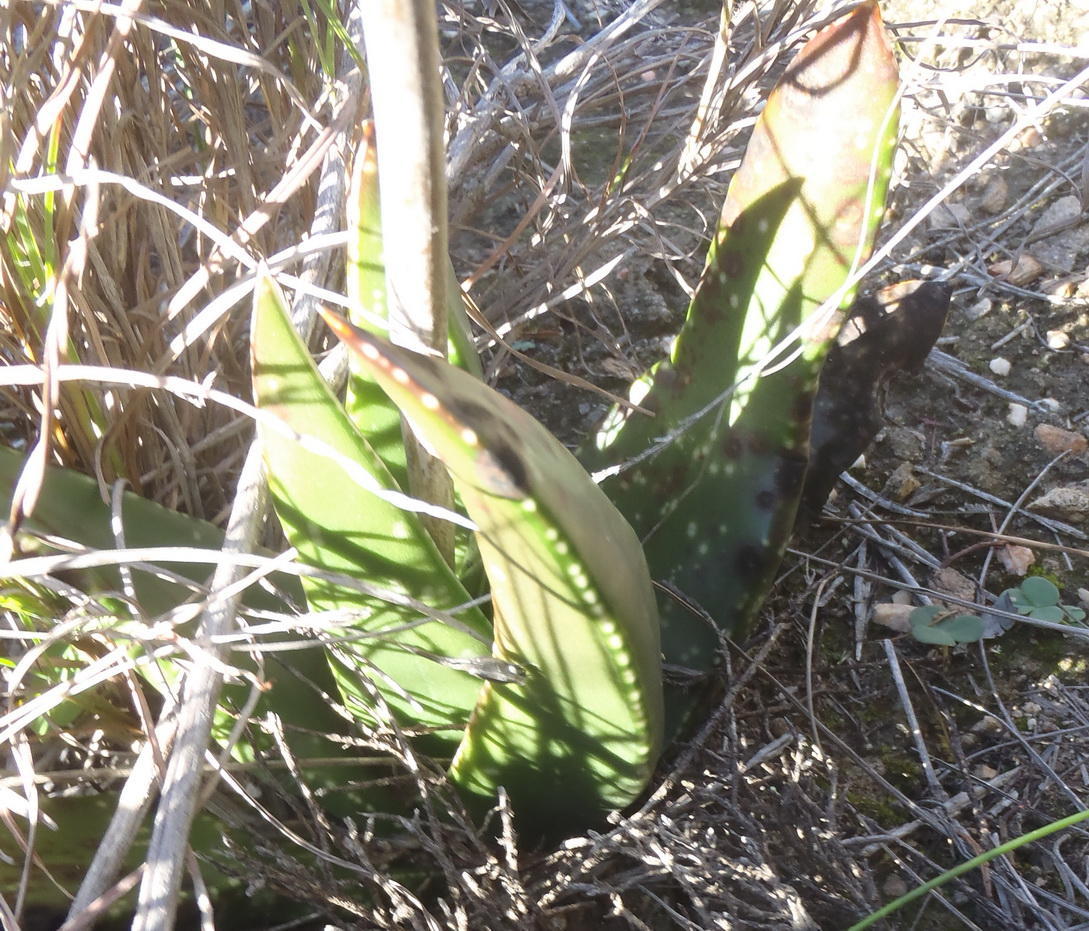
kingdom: Plantae
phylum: Tracheophyta
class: Liliopsida
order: Asparagales
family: Asphodelaceae
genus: Gasteria
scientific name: Gasteria nitida
